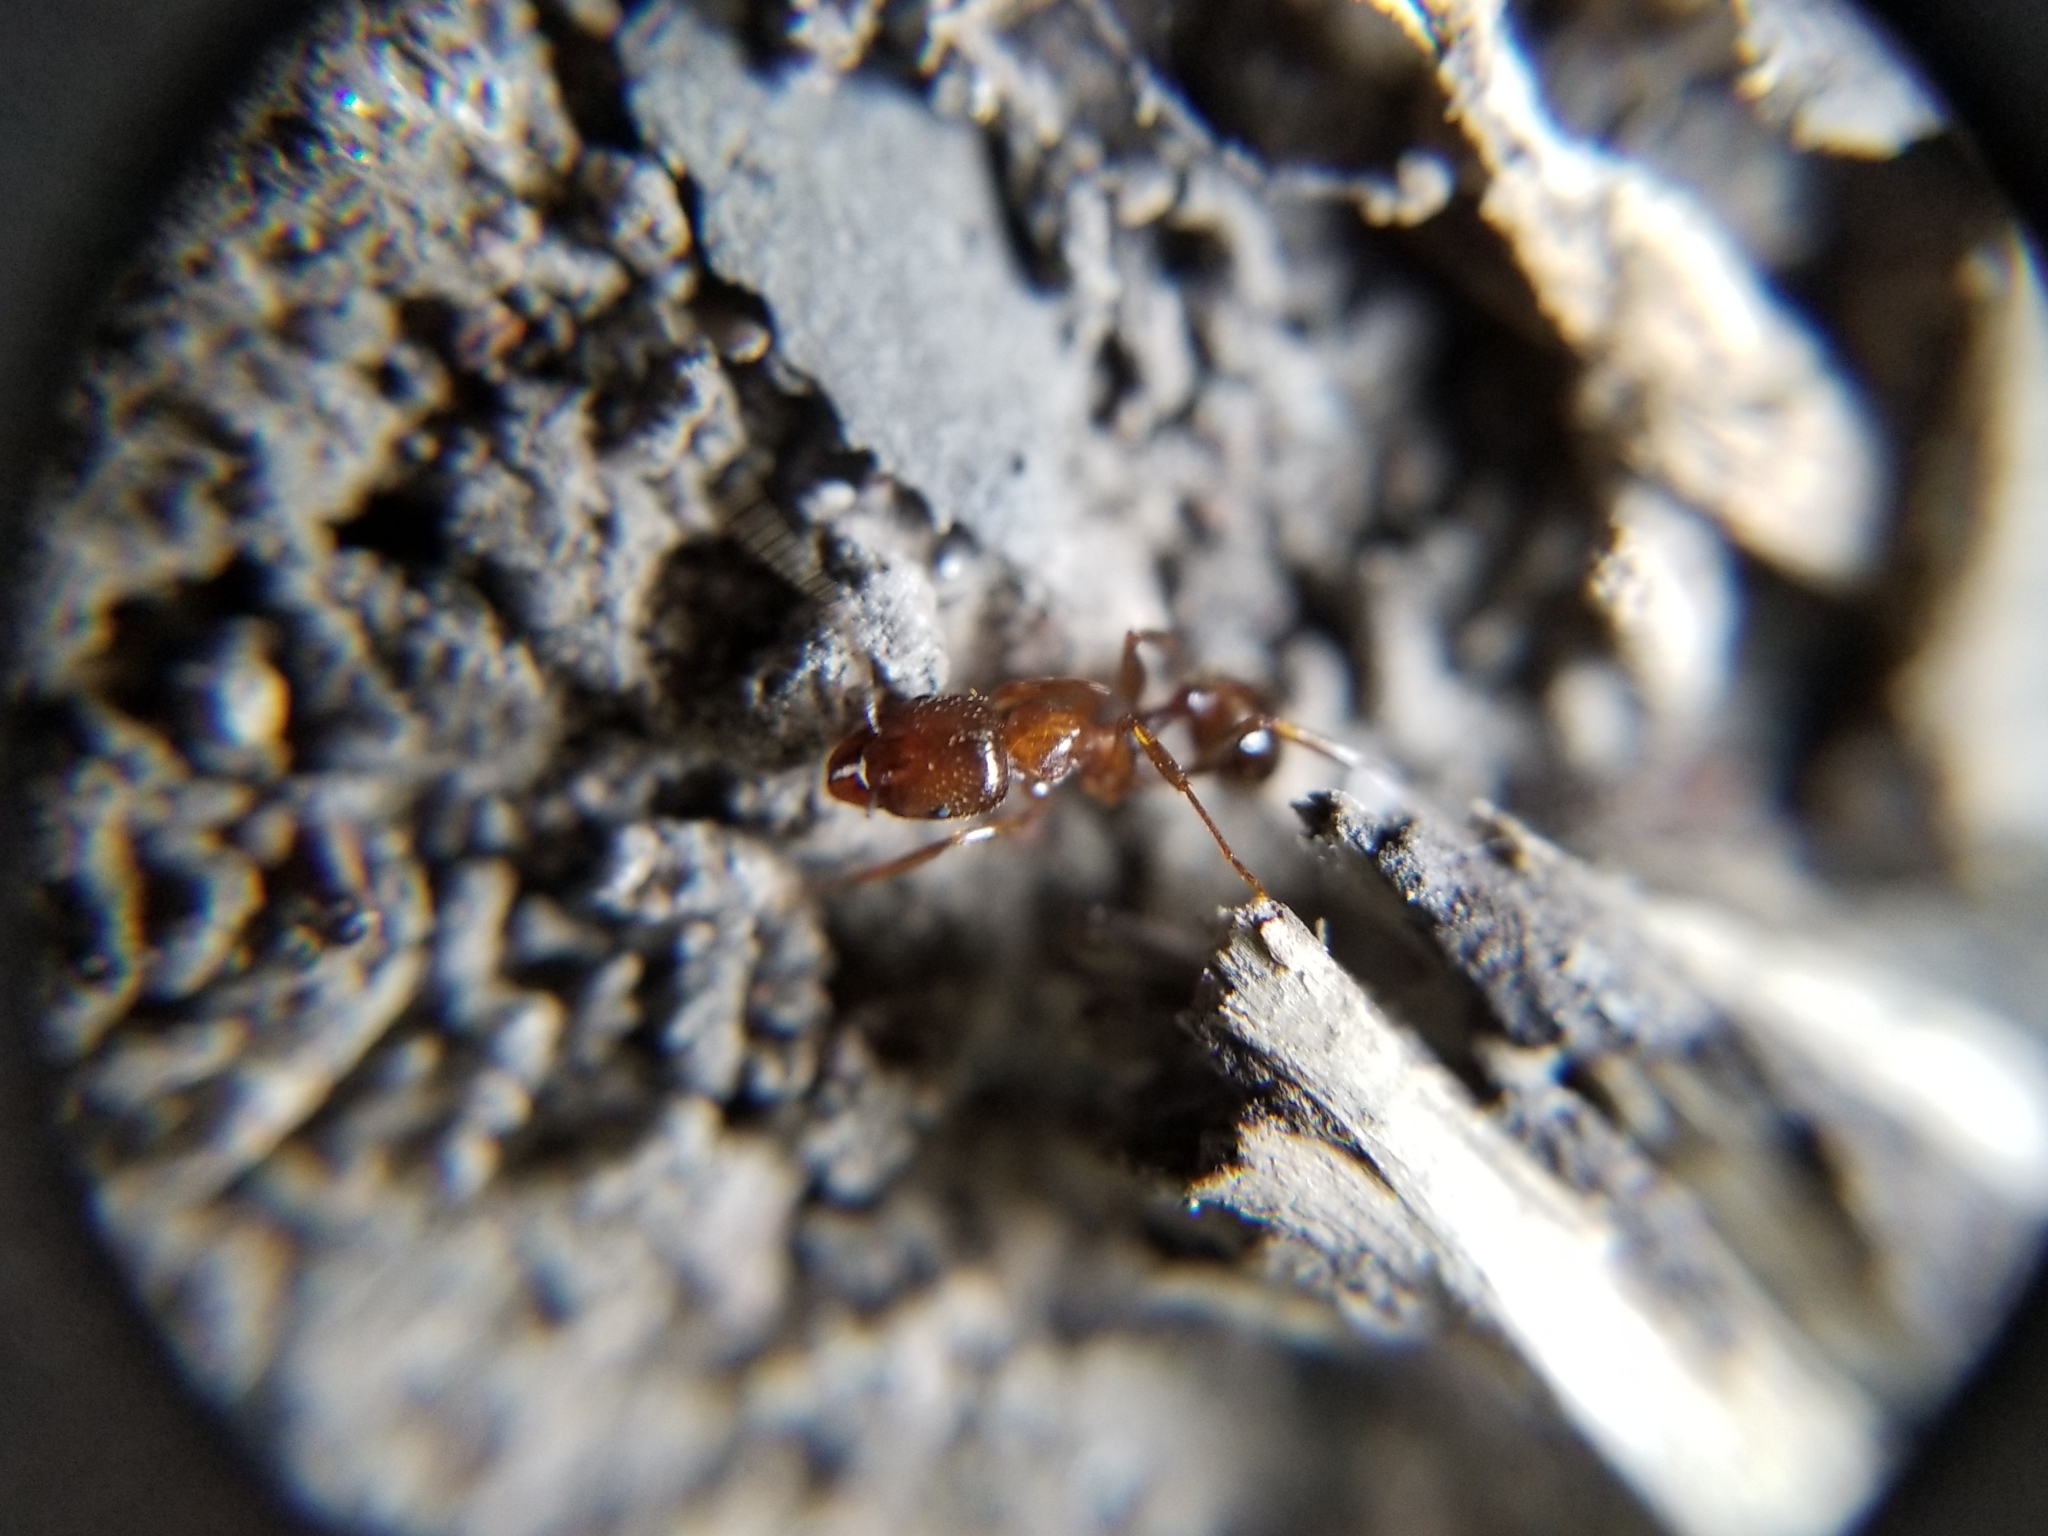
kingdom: Animalia
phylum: Arthropoda
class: Insecta
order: Hymenoptera
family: Formicidae
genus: Aphaenogaster
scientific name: Aphaenogaster occidentalis
